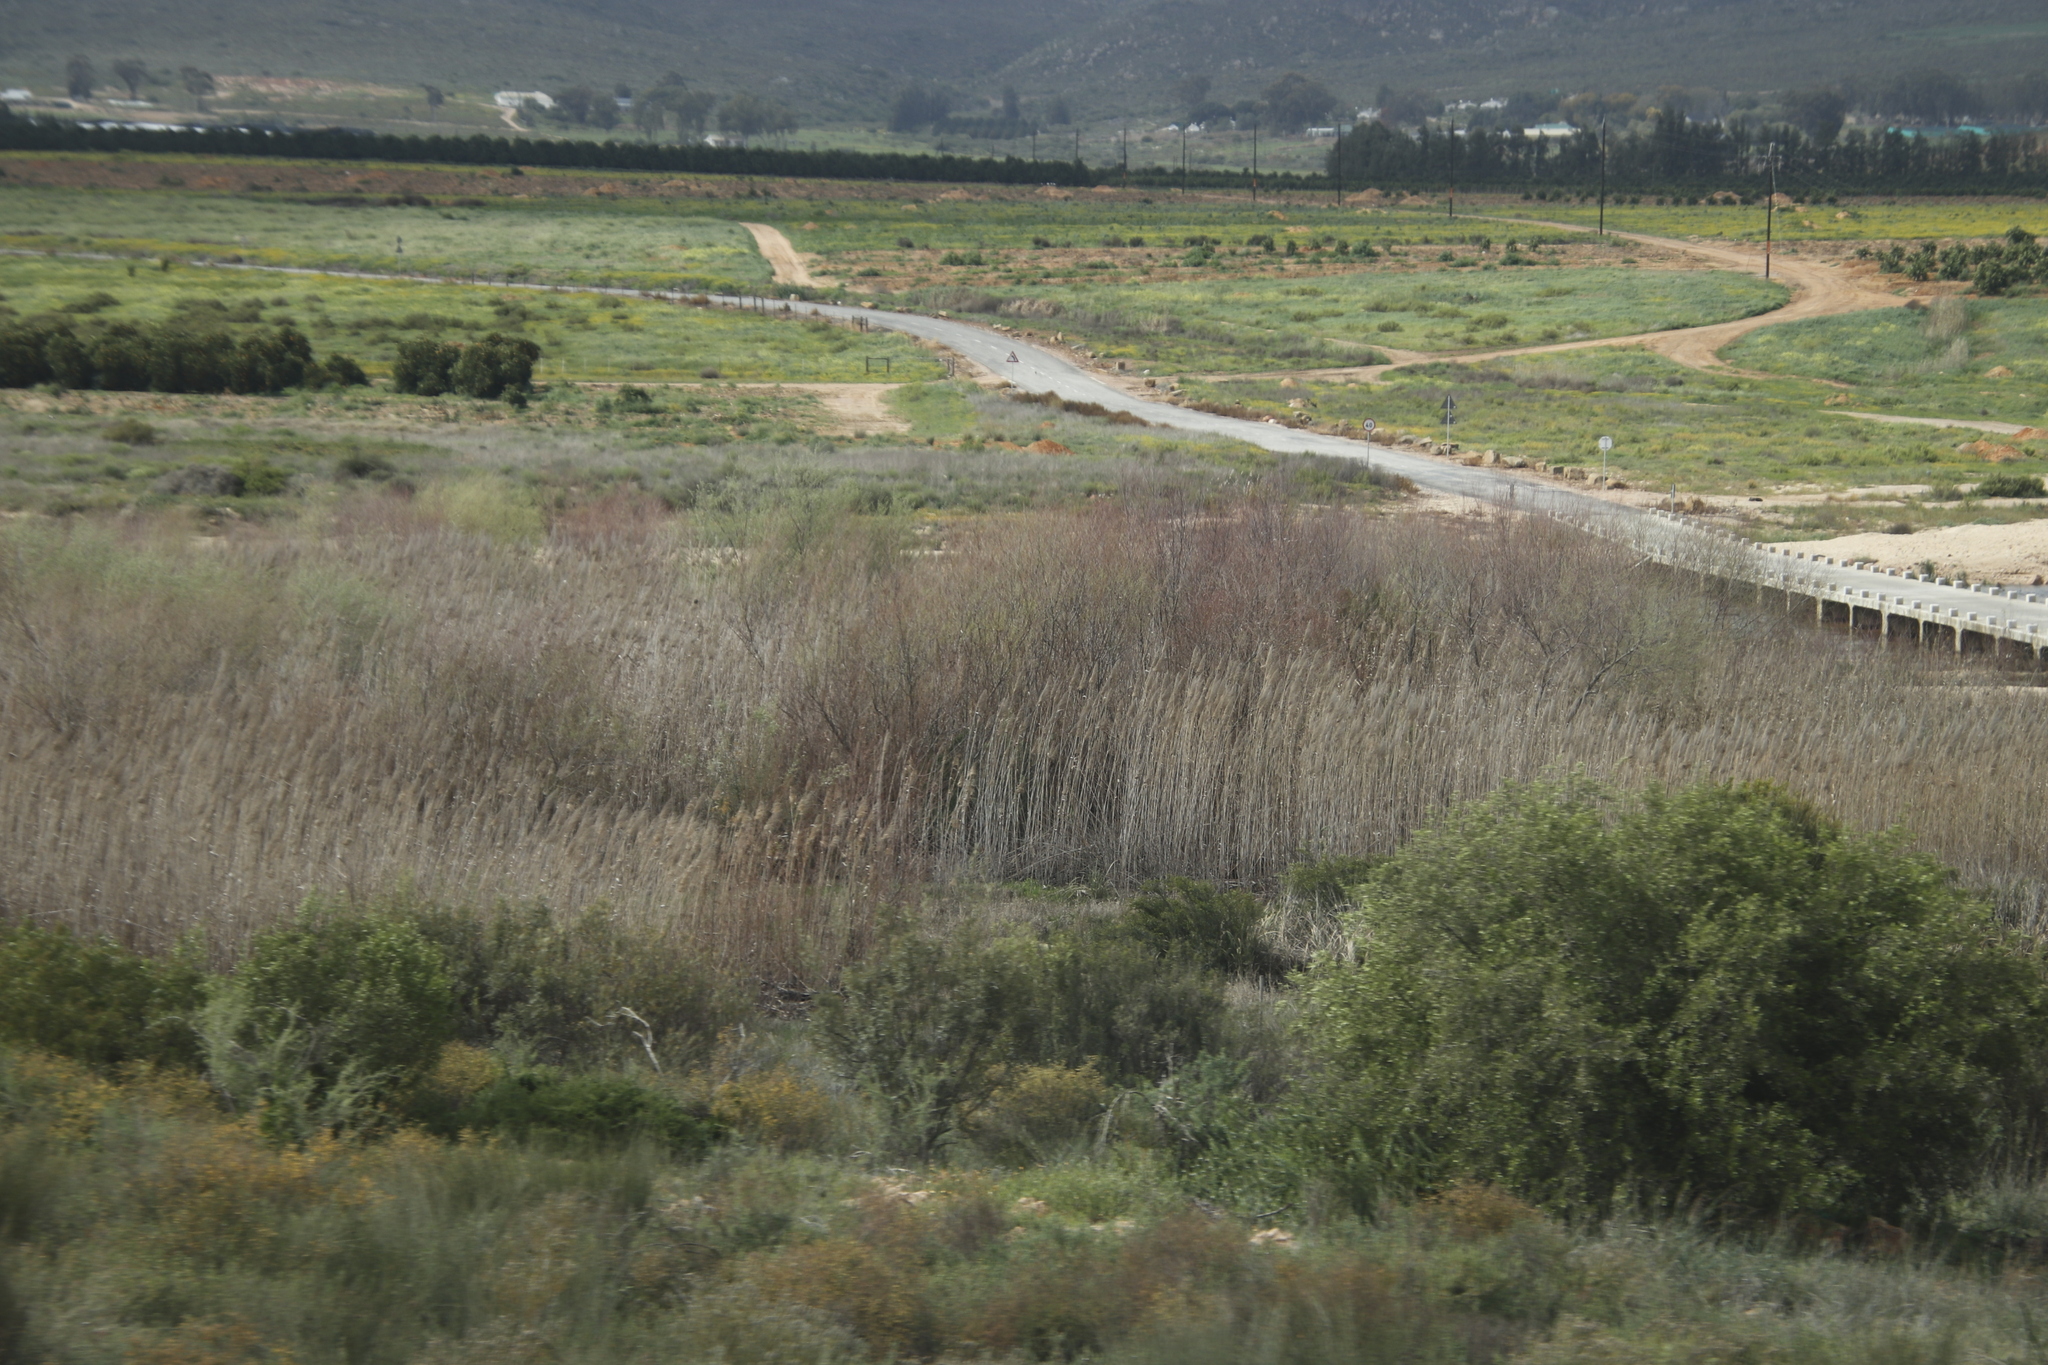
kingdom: Plantae
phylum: Tracheophyta
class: Liliopsida
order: Poales
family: Poaceae
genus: Phragmites
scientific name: Phragmites australis
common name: Common reed
